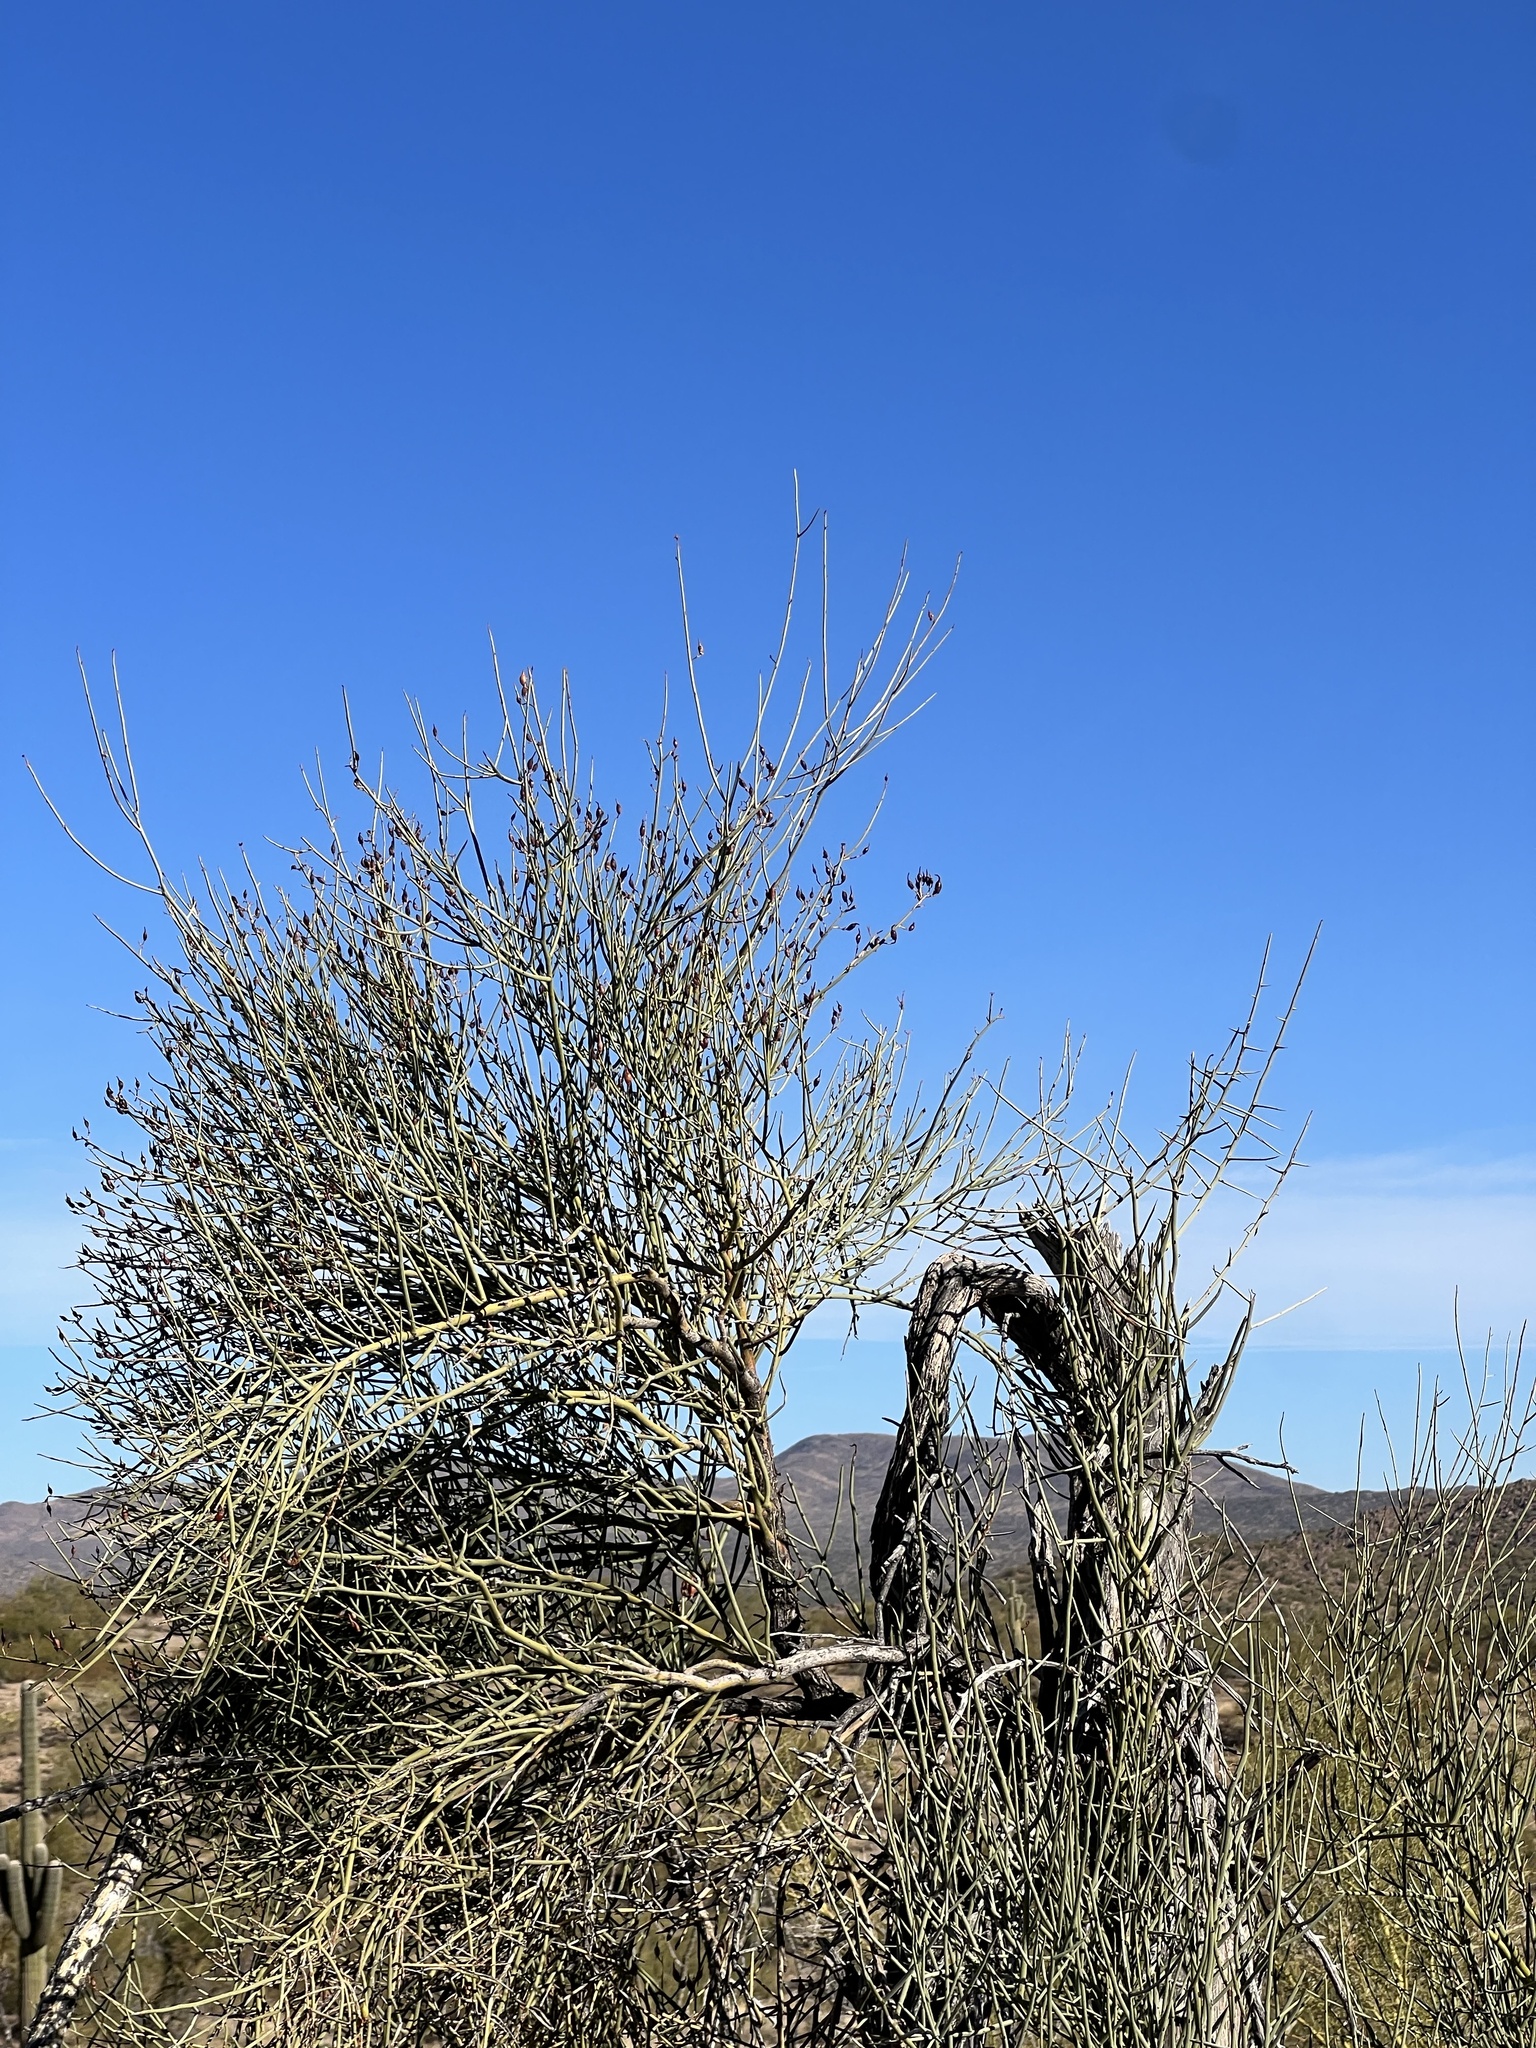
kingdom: Plantae
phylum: Tracheophyta
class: Magnoliopsida
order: Celastrales
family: Celastraceae
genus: Canotia
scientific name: Canotia holacantha
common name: Crucifixion thorns
